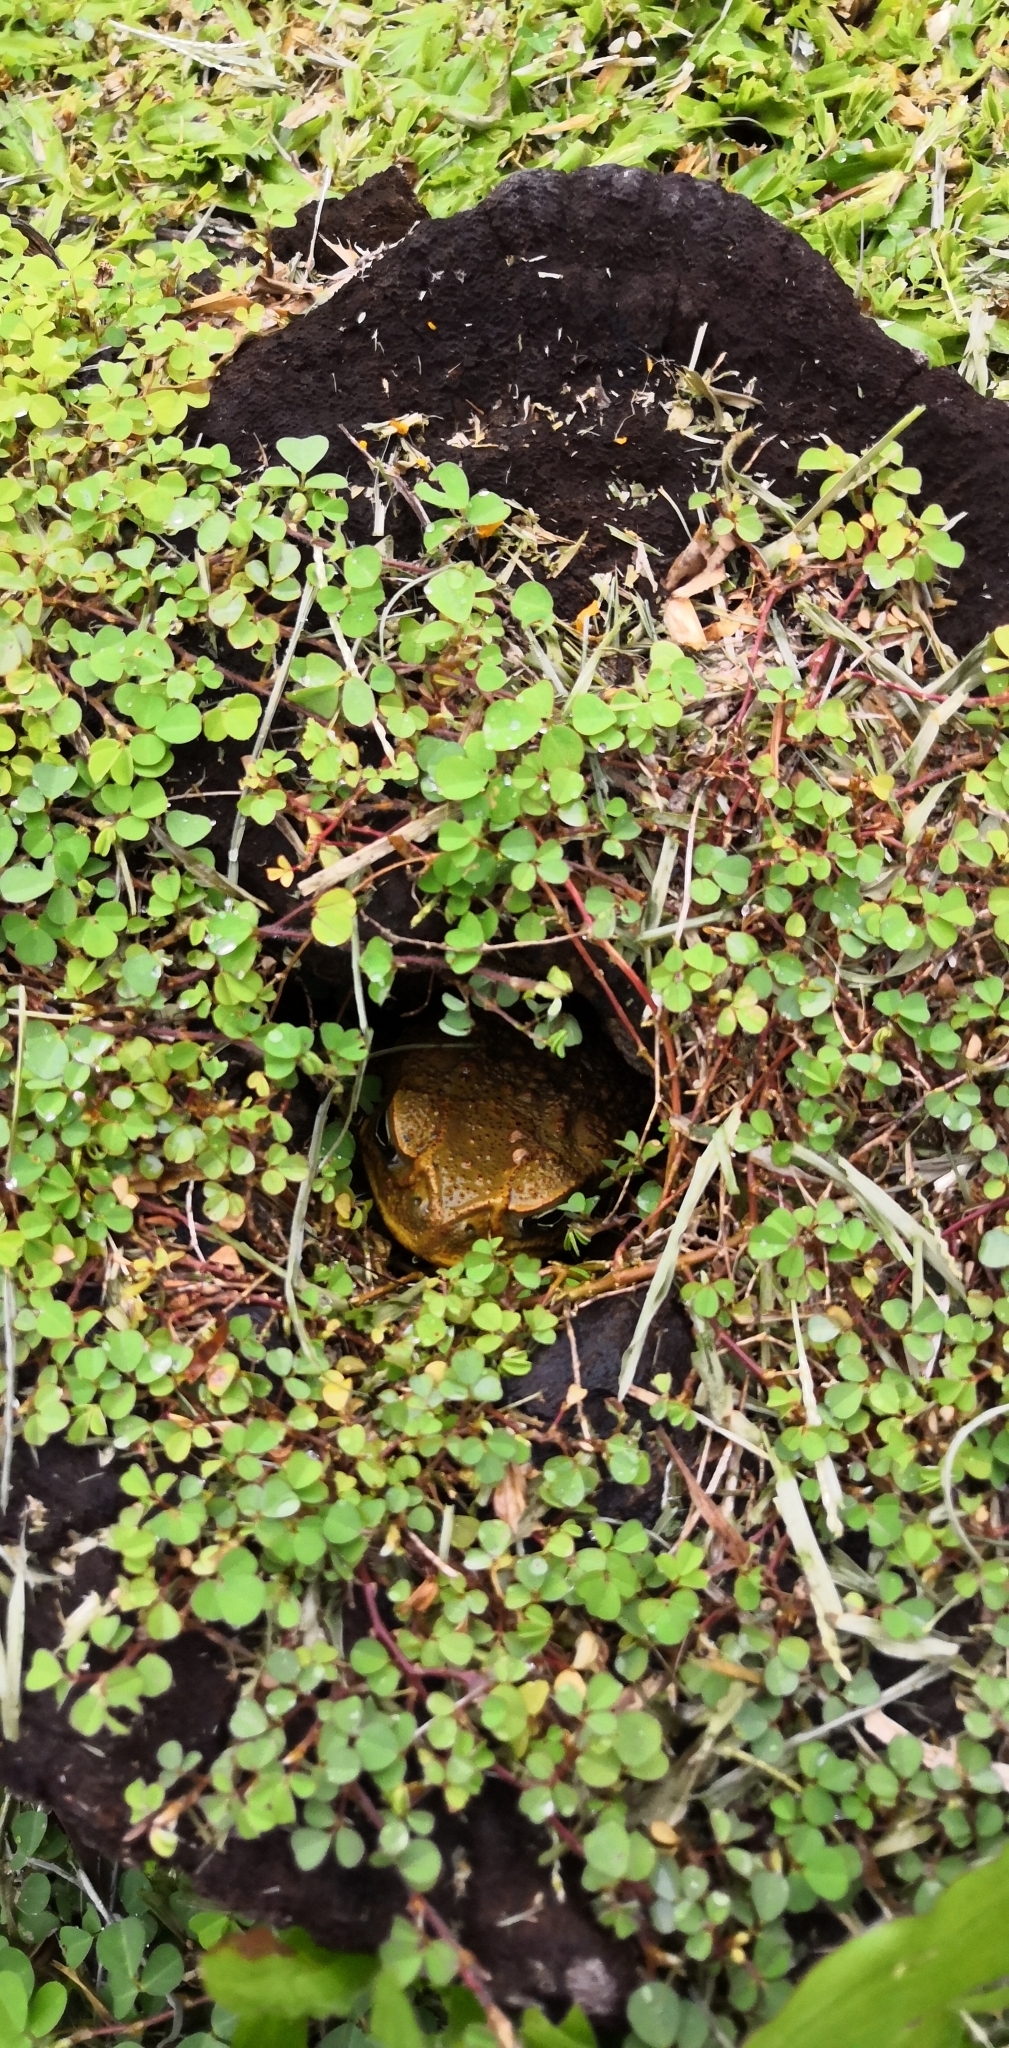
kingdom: Animalia
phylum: Chordata
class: Amphibia
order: Anura
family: Bufonidae
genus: Rhinella
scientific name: Rhinella marina
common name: Cane toad
